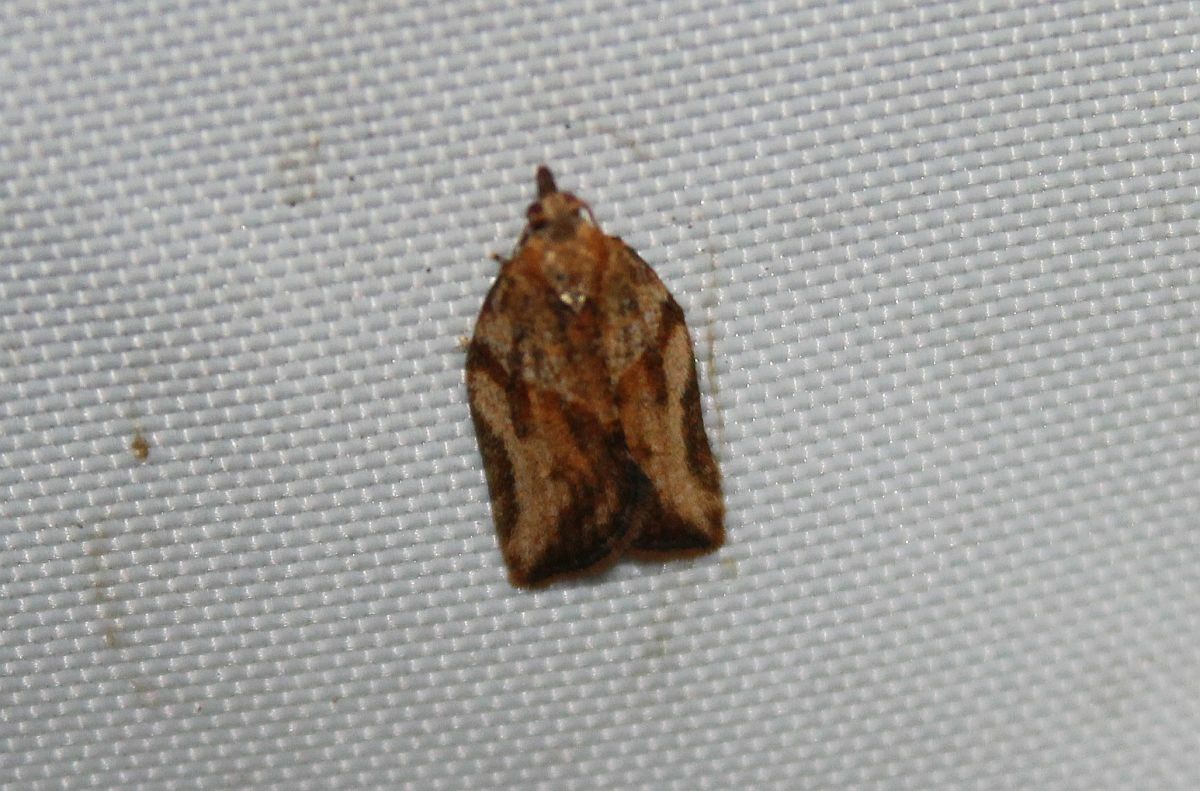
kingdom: Animalia
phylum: Arthropoda
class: Insecta
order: Lepidoptera
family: Tortricidae
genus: Epiphyas
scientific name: Epiphyas postvittana
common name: Light brown apple moth
